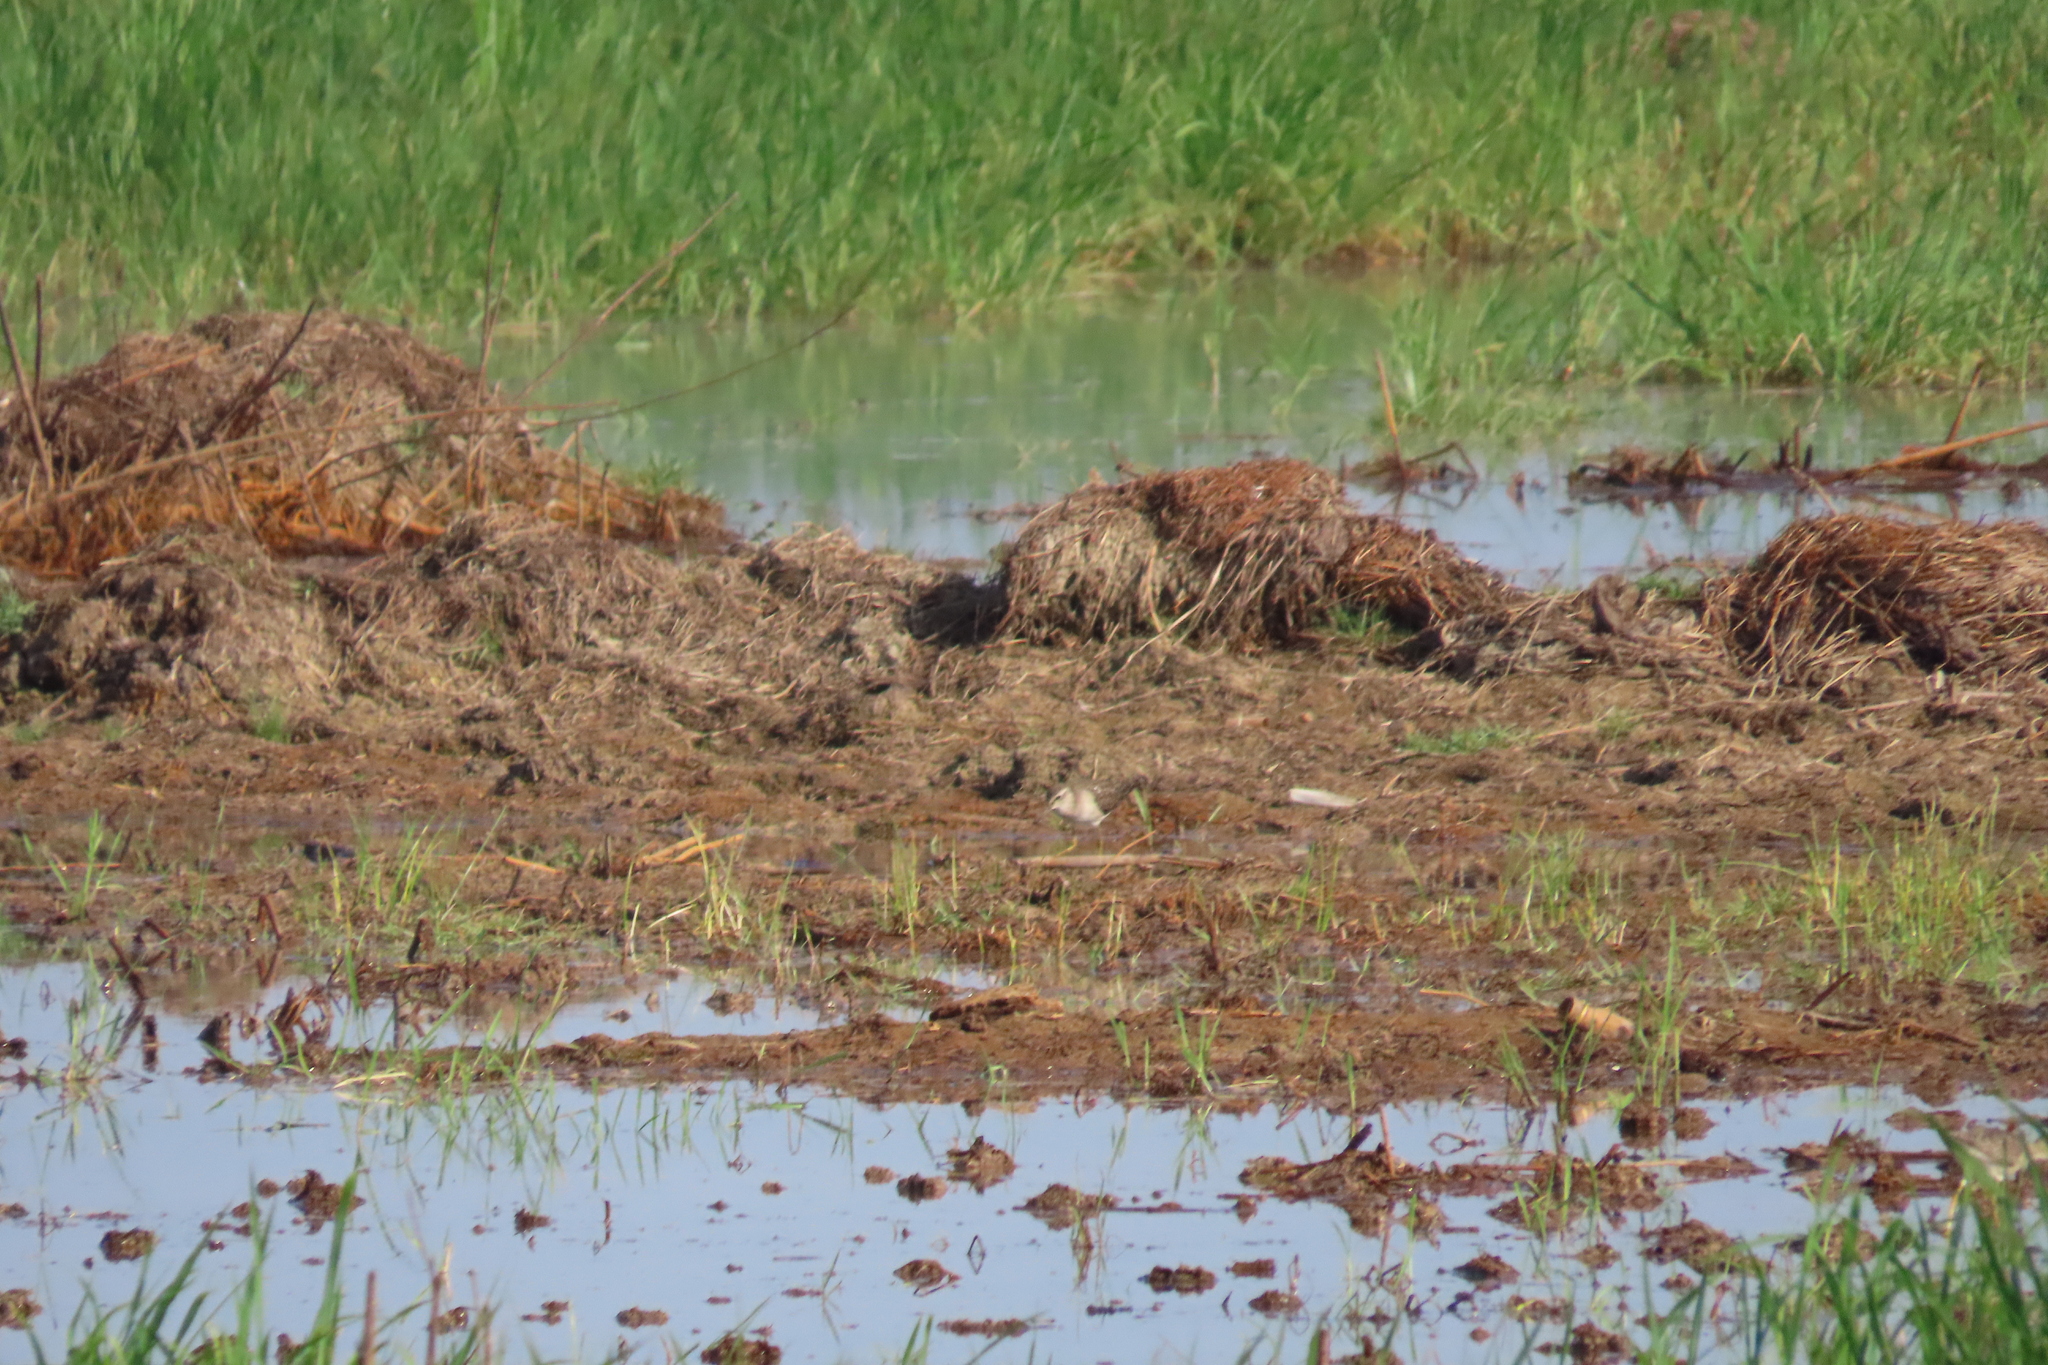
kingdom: Animalia
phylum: Chordata
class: Aves
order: Charadriiformes
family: Scolopacidae
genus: Tringa
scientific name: Tringa glareola
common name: Wood sandpiper
